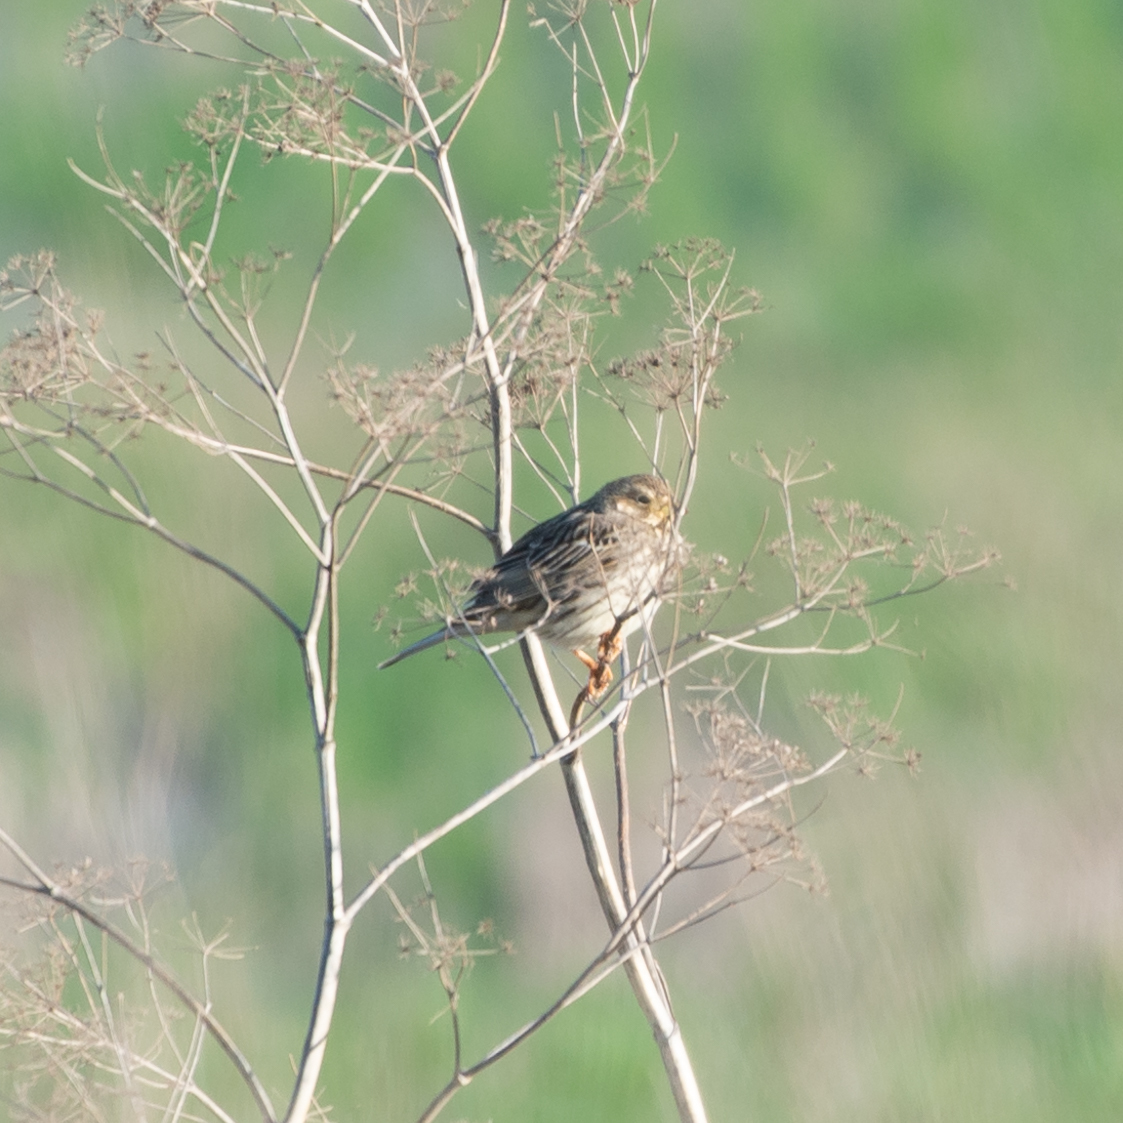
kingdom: Animalia
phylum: Chordata
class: Aves
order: Passeriformes
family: Emberizidae
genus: Emberiza
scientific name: Emberiza calandra
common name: Corn bunting
